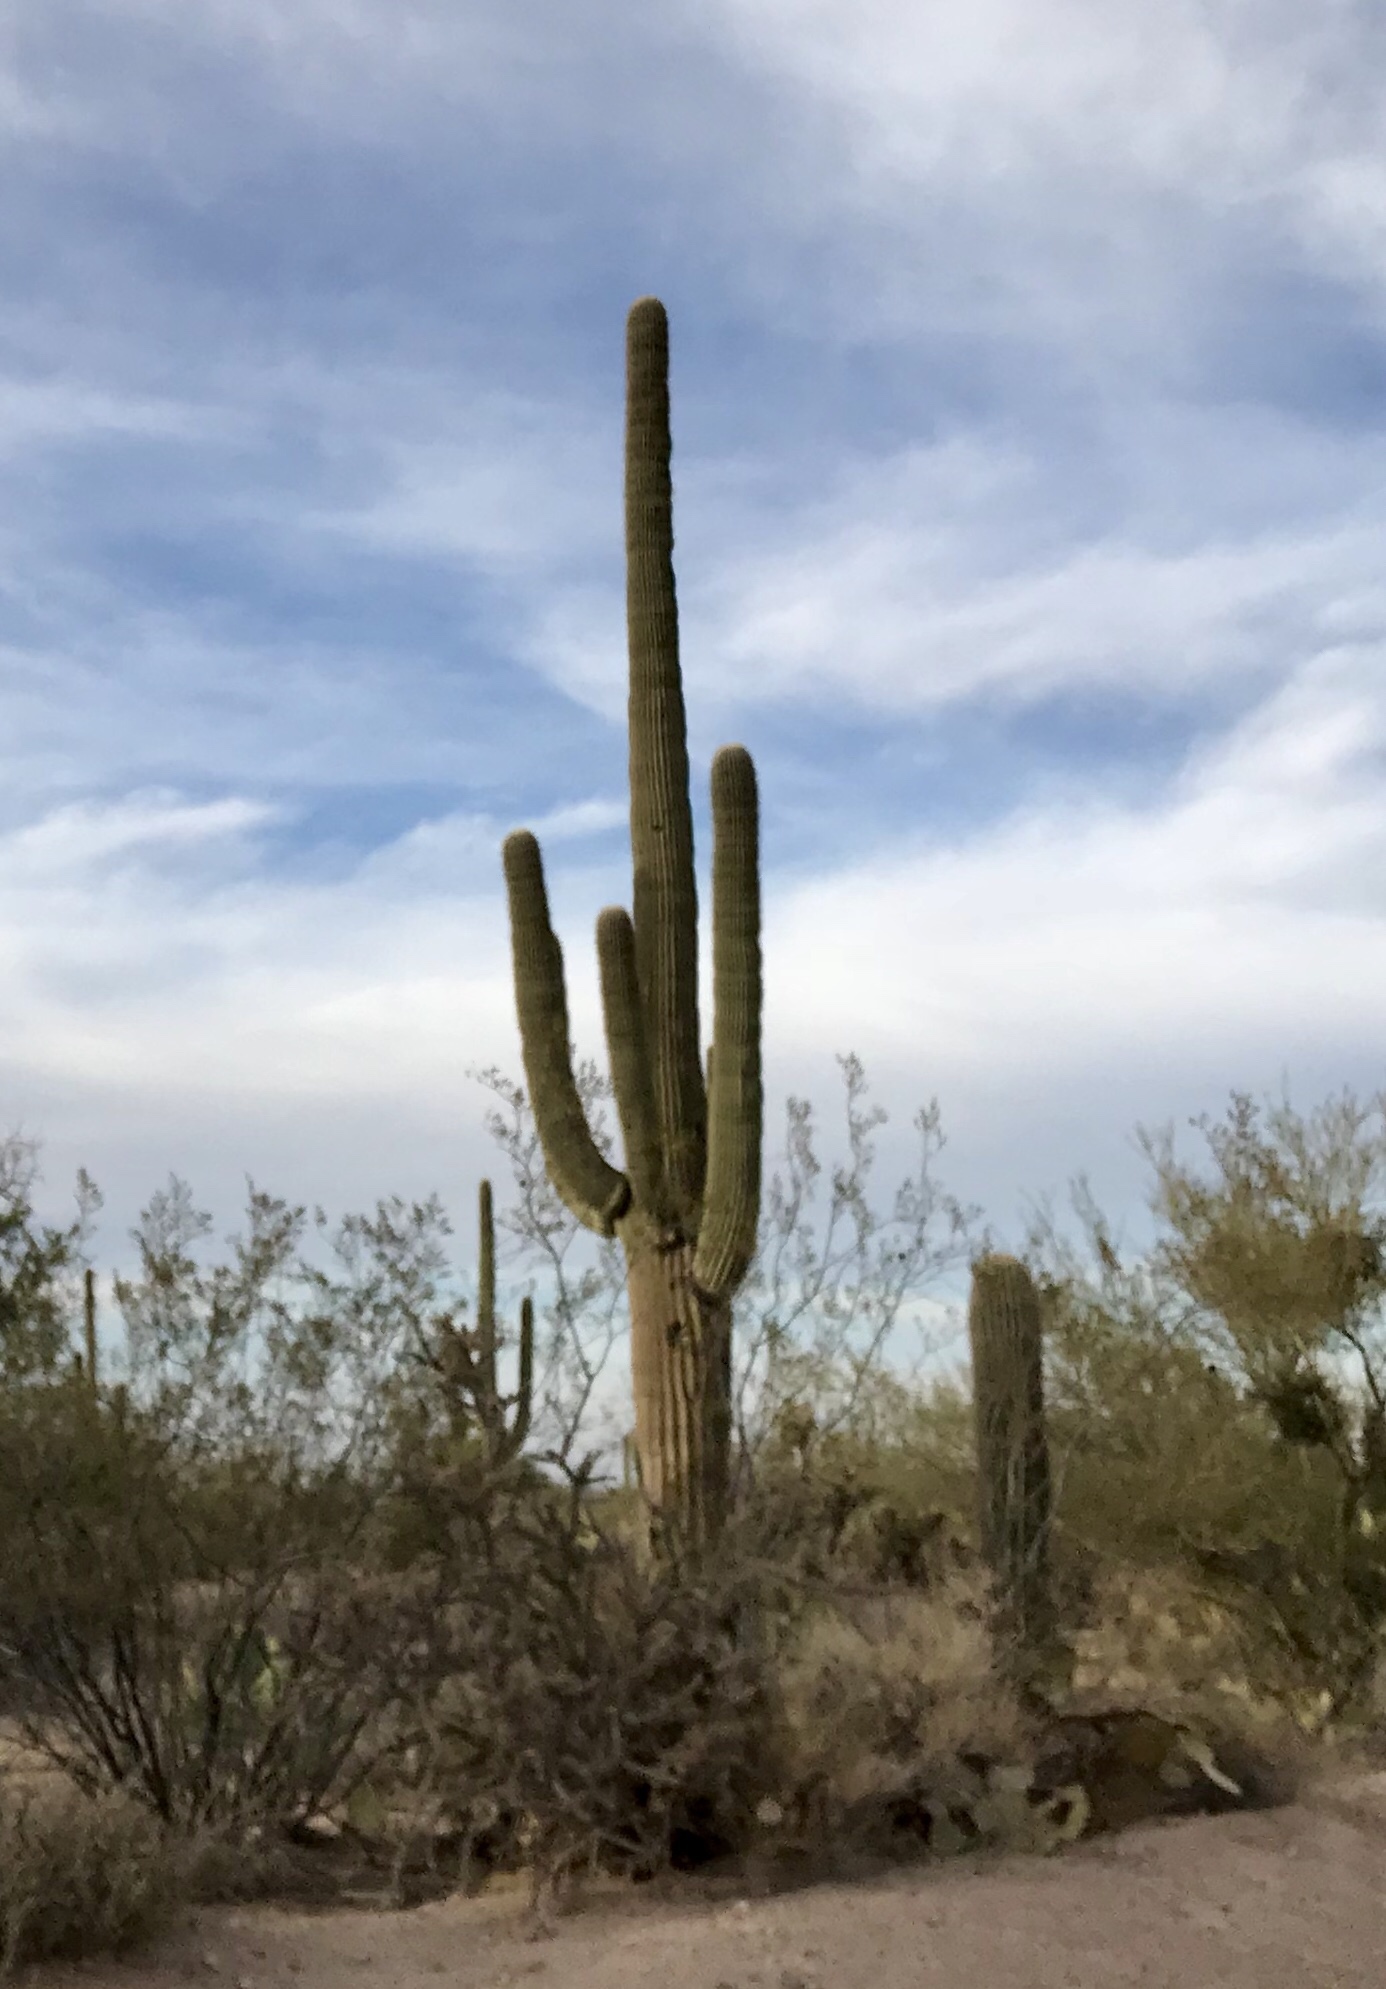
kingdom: Plantae
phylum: Tracheophyta
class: Magnoliopsida
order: Caryophyllales
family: Cactaceae
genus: Carnegiea
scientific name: Carnegiea gigantea
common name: Saguaro
